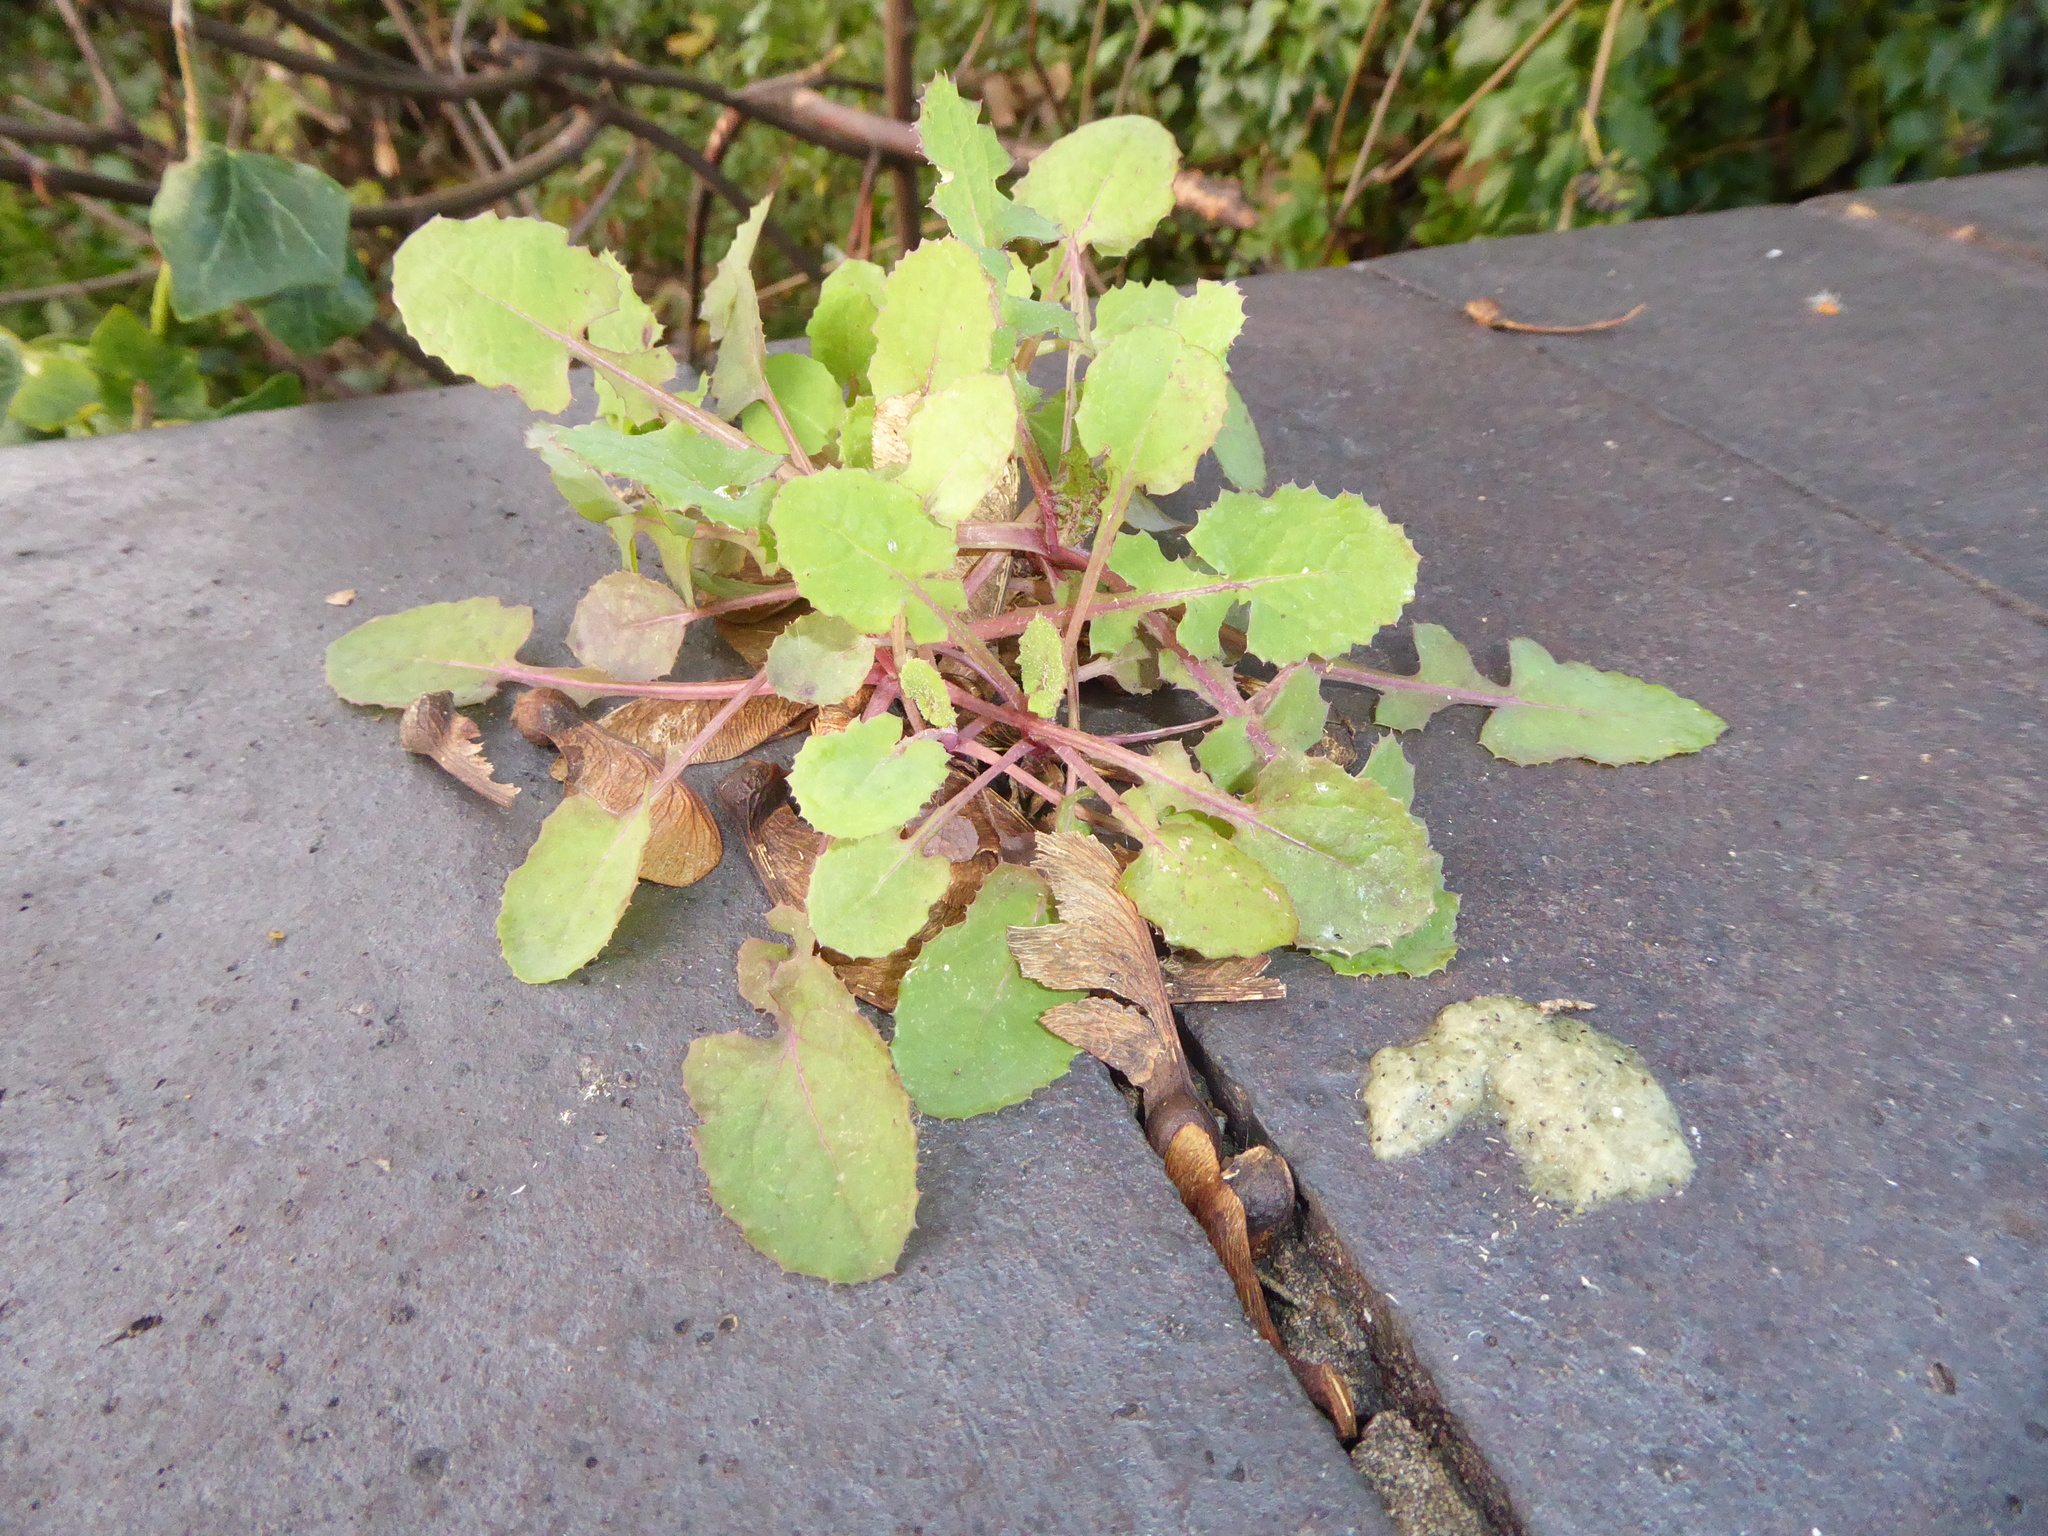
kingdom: Plantae
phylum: Tracheophyta
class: Magnoliopsida
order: Asterales
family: Asteraceae
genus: Sonchus
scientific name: Sonchus oleraceus
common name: Common sowthistle
